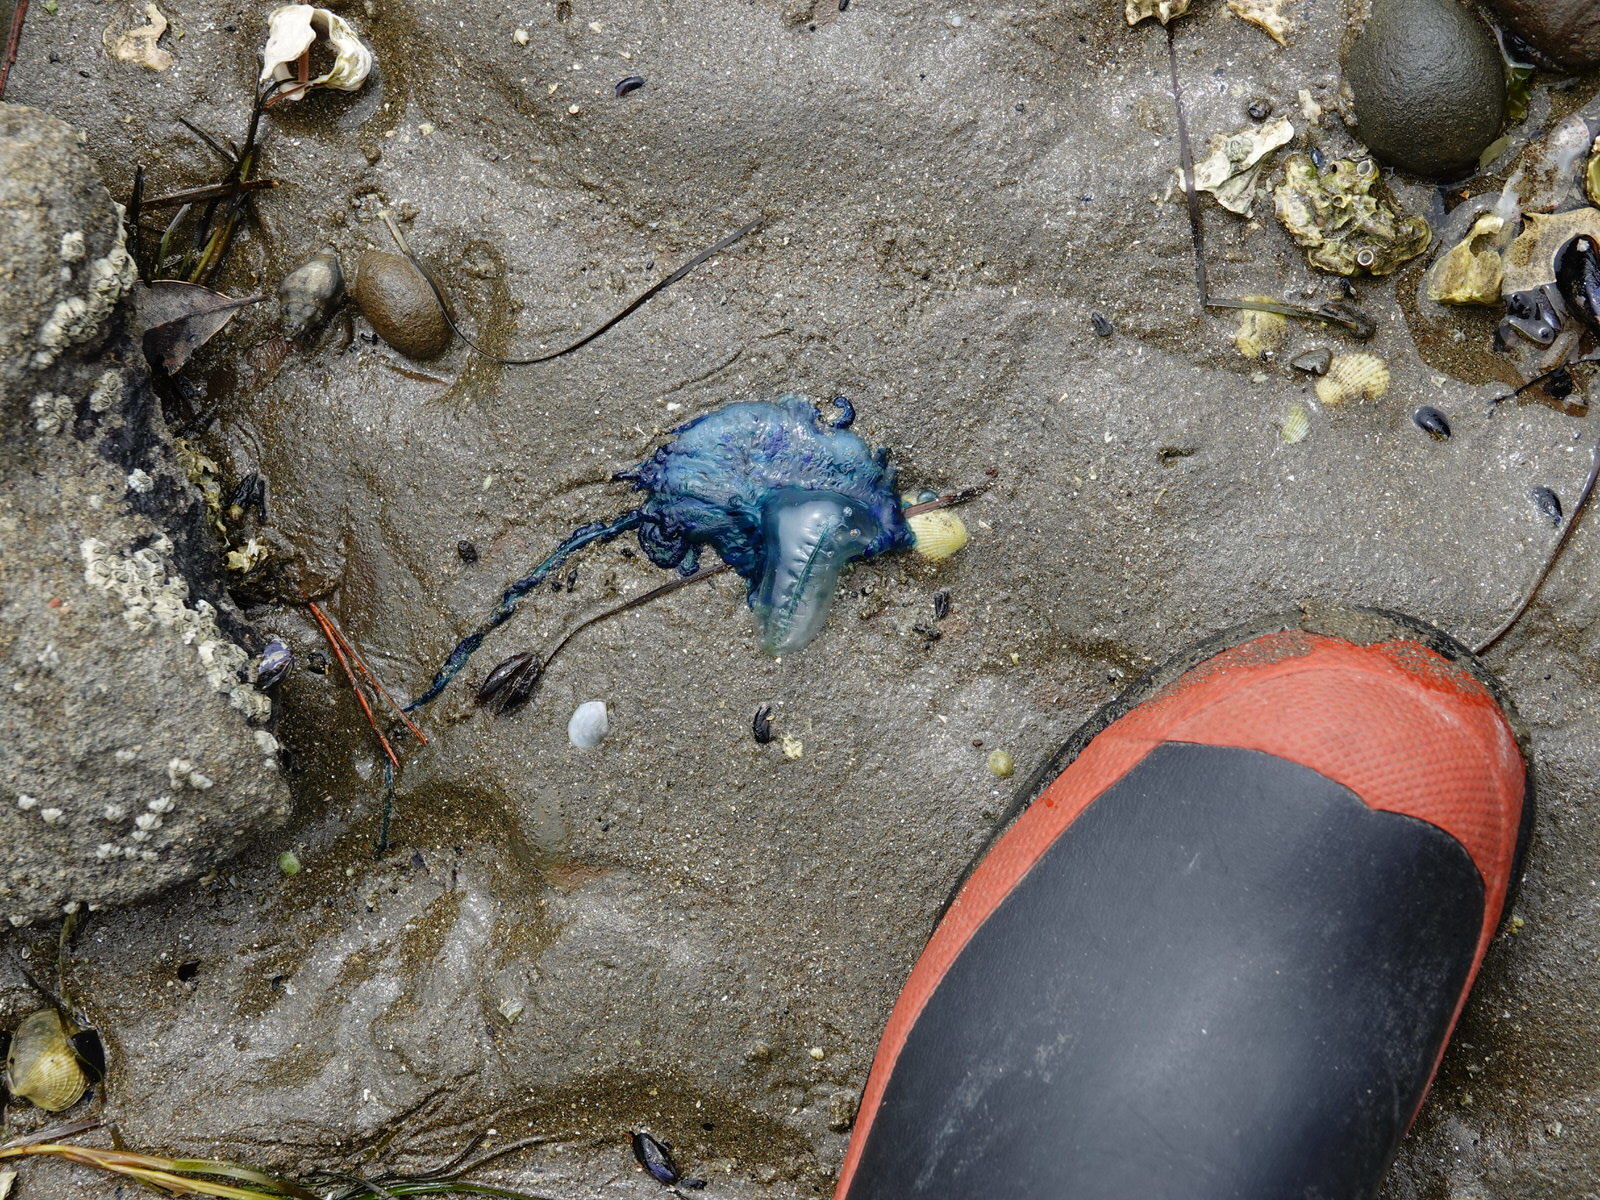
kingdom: Animalia
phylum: Cnidaria
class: Hydrozoa
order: Siphonophorae
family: Physaliidae
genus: Physalia
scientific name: Physalia physalis
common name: Portuguese man-of-war
